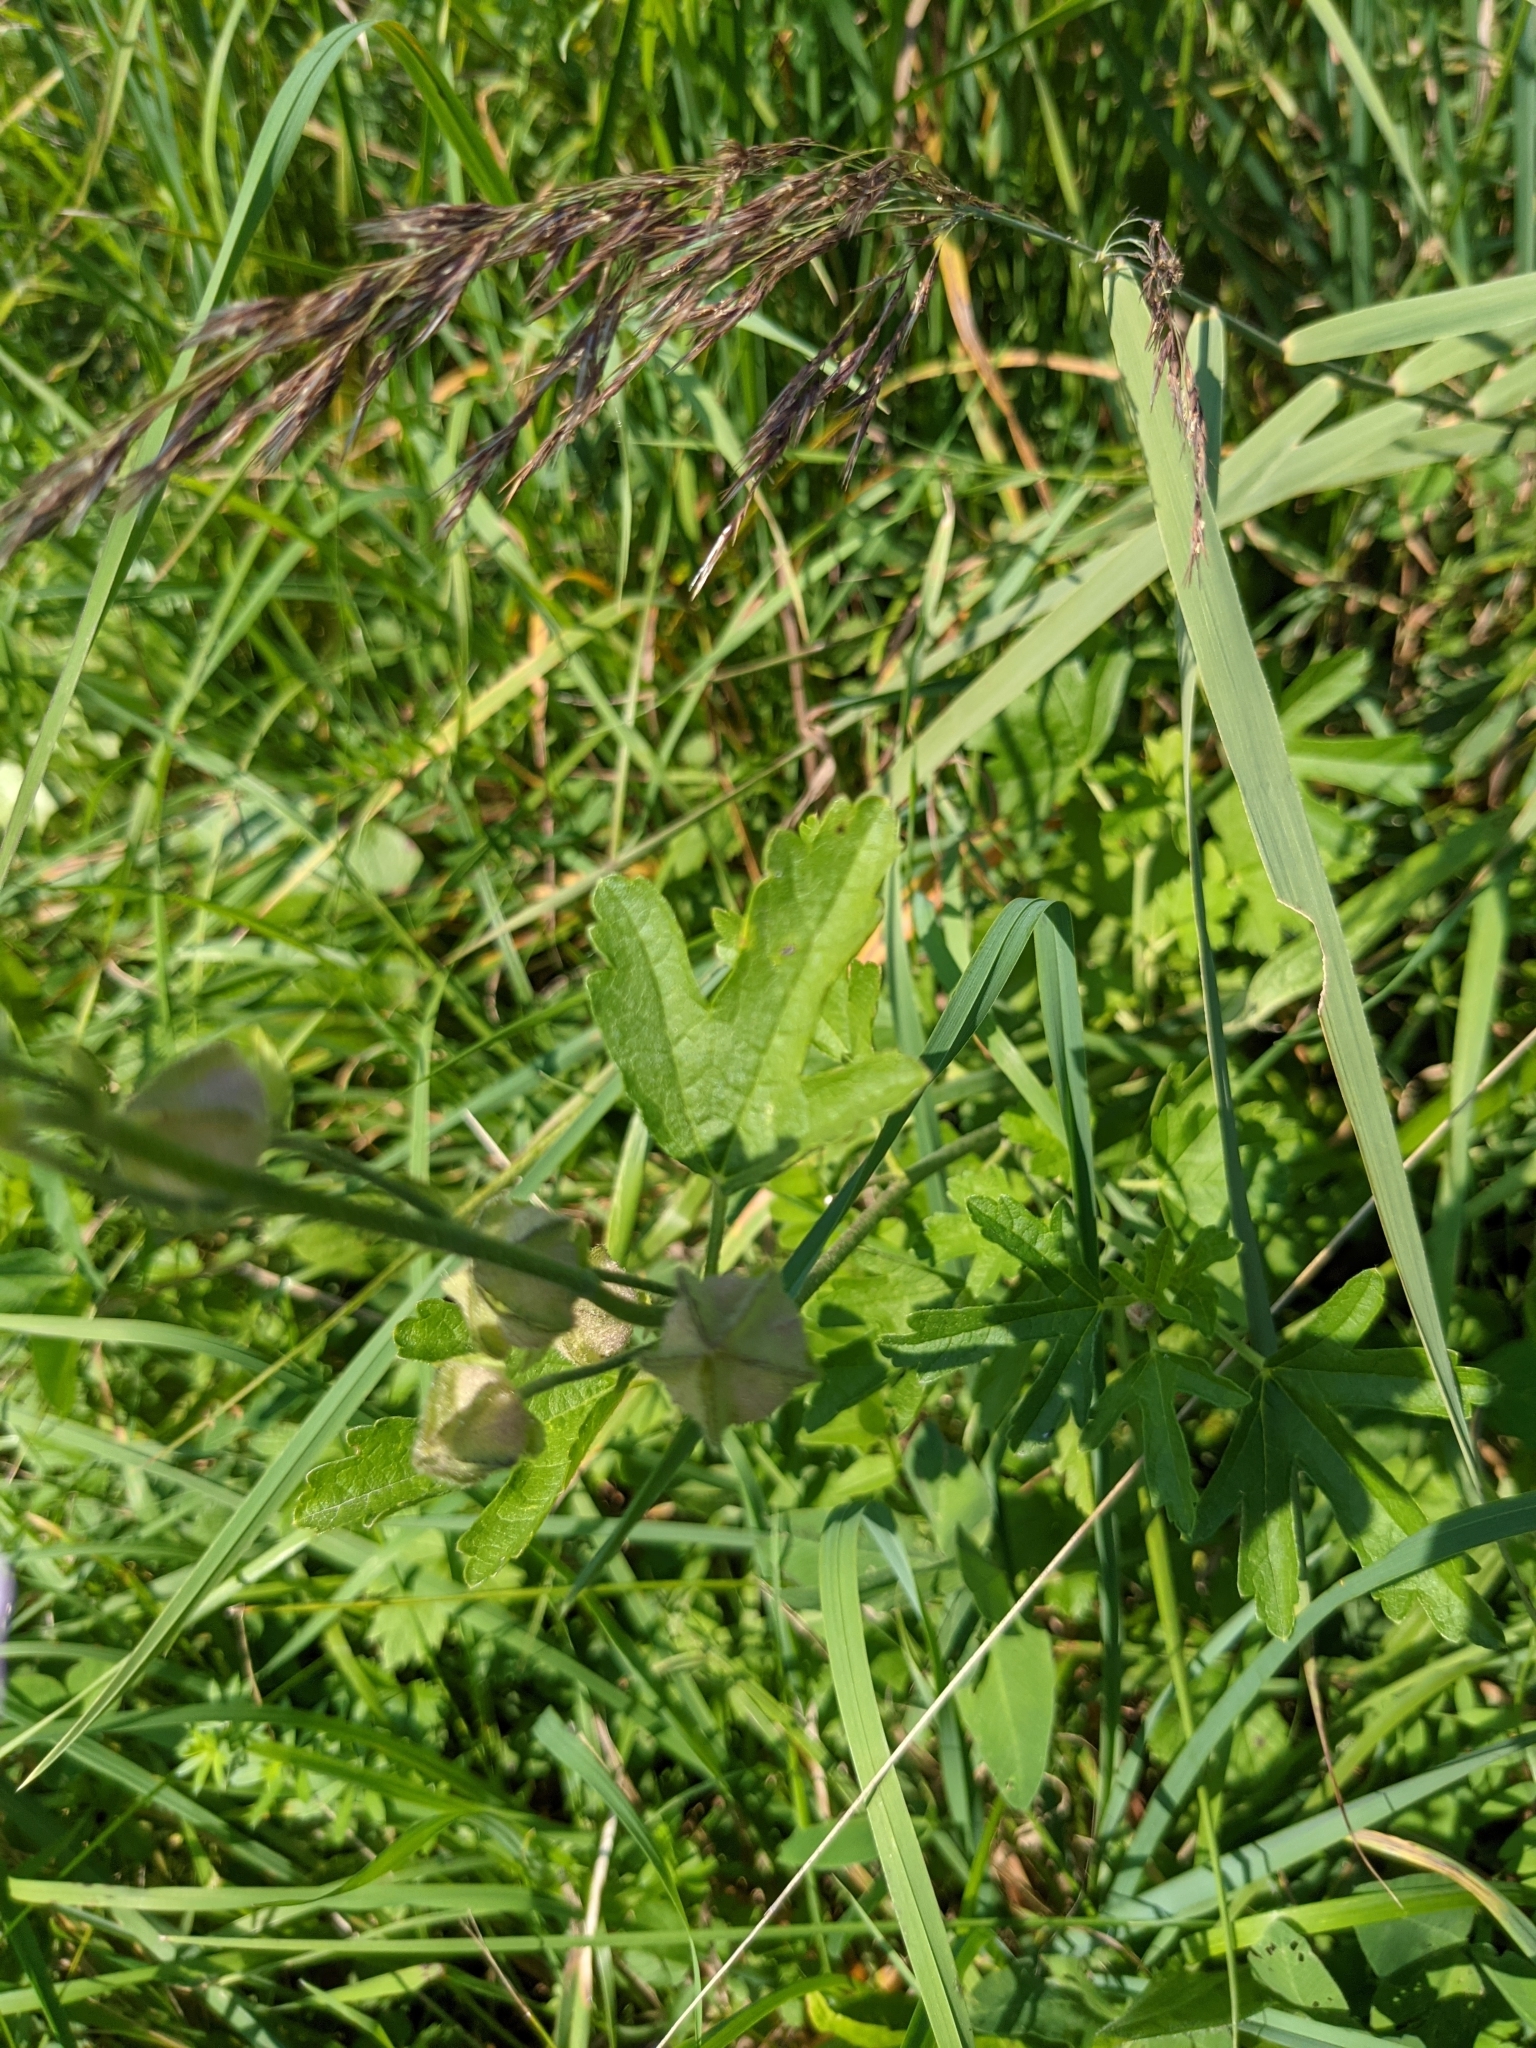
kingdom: Plantae
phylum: Tracheophyta
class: Magnoliopsida
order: Malvales
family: Malvaceae
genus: Malva
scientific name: Malva alcea
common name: Greater musk-mallow
